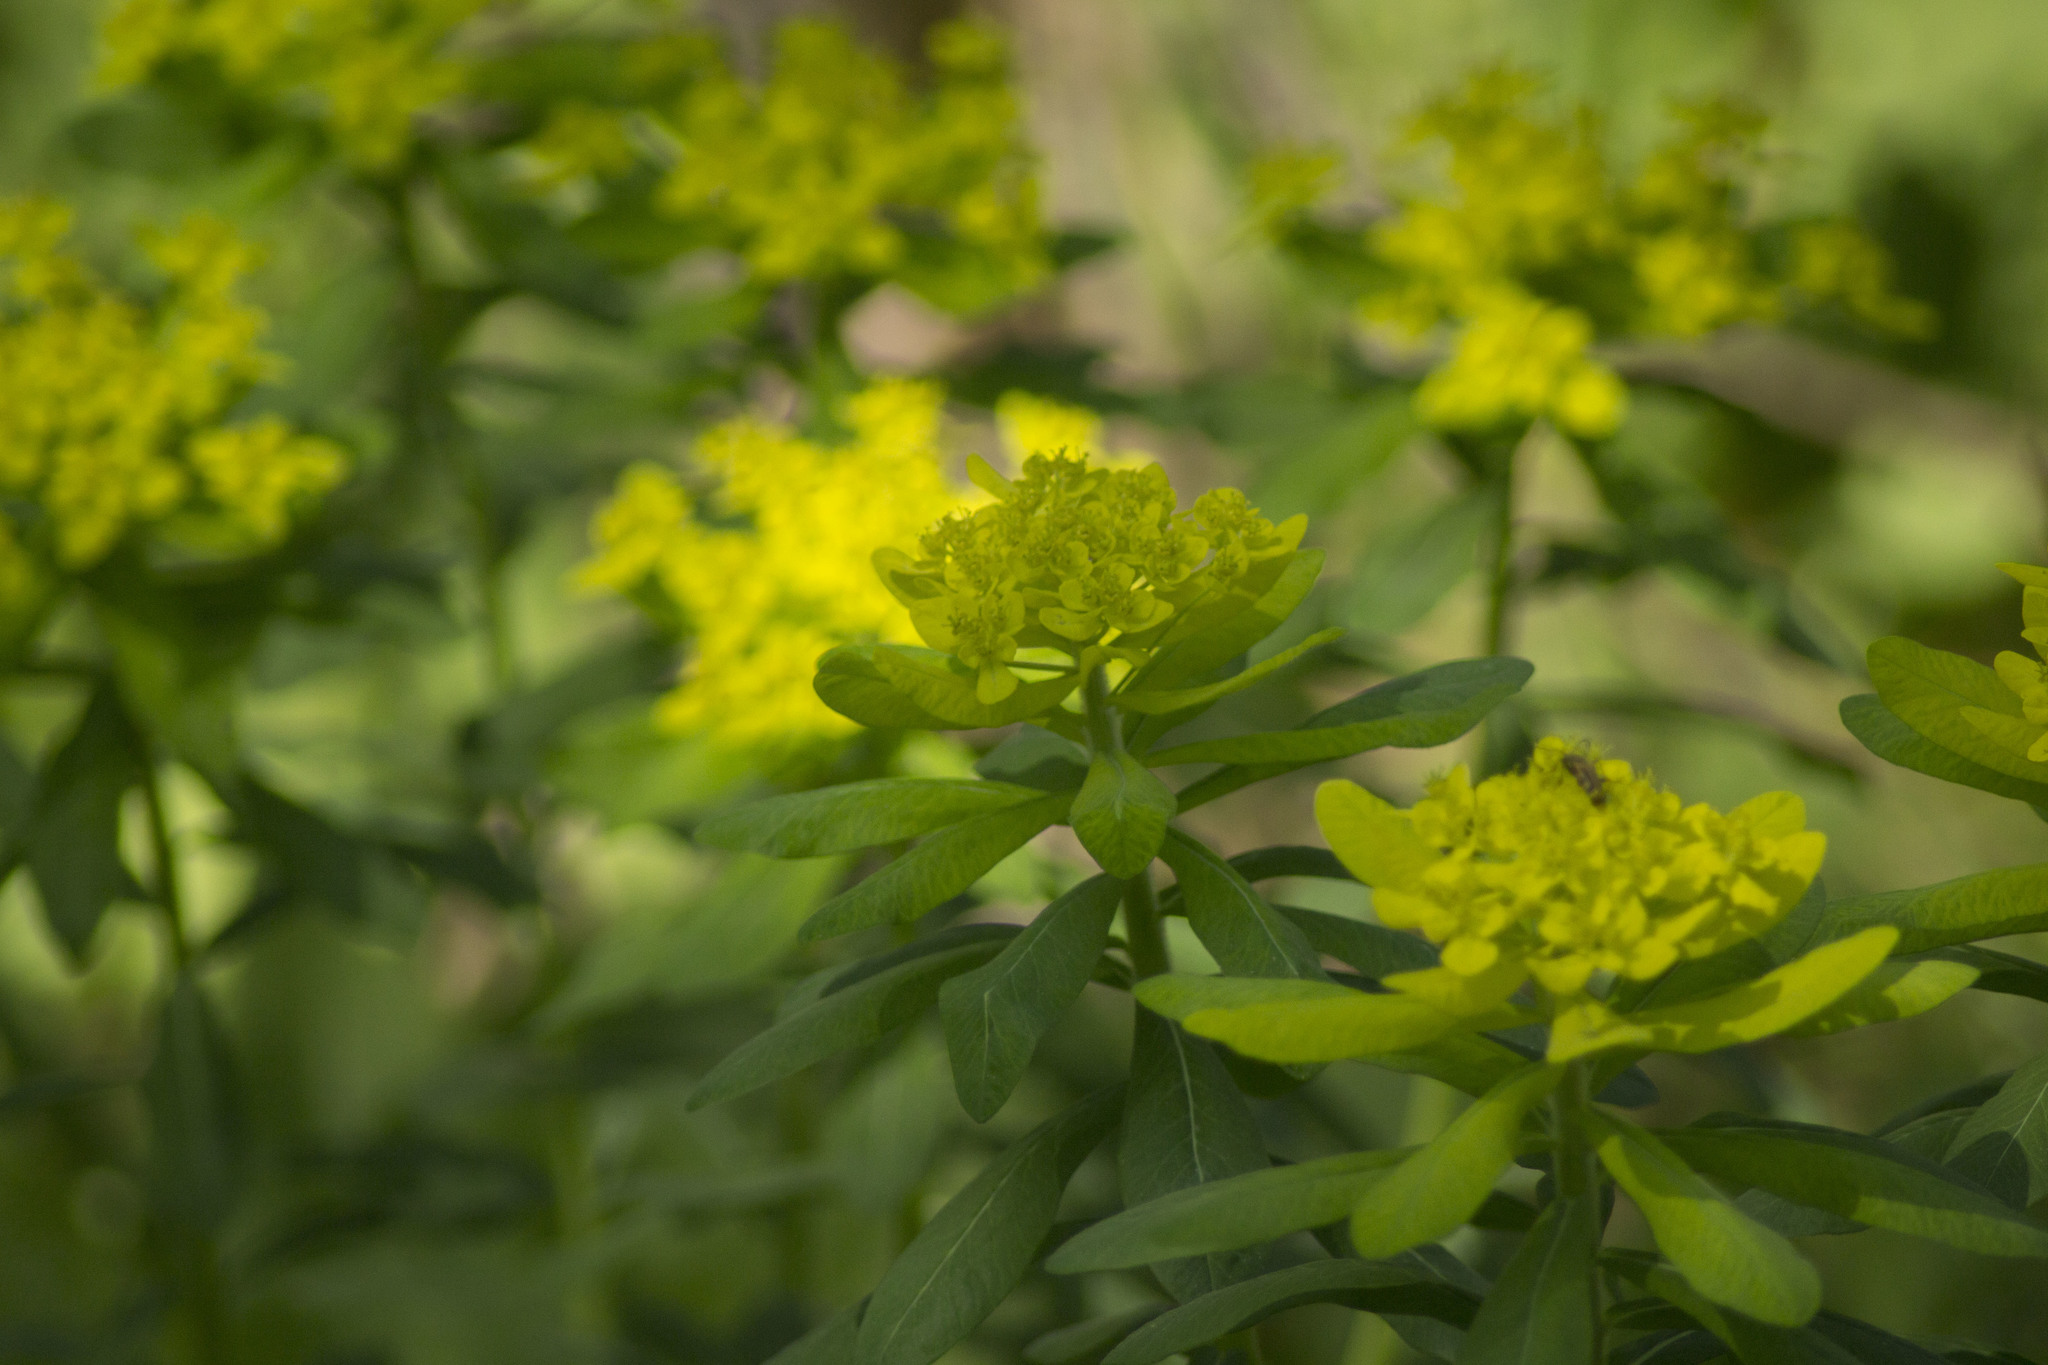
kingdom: Plantae
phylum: Tracheophyta
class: Magnoliopsida
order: Malpighiales
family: Euphorbiaceae
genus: Euphorbia
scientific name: Euphorbia pilosa
